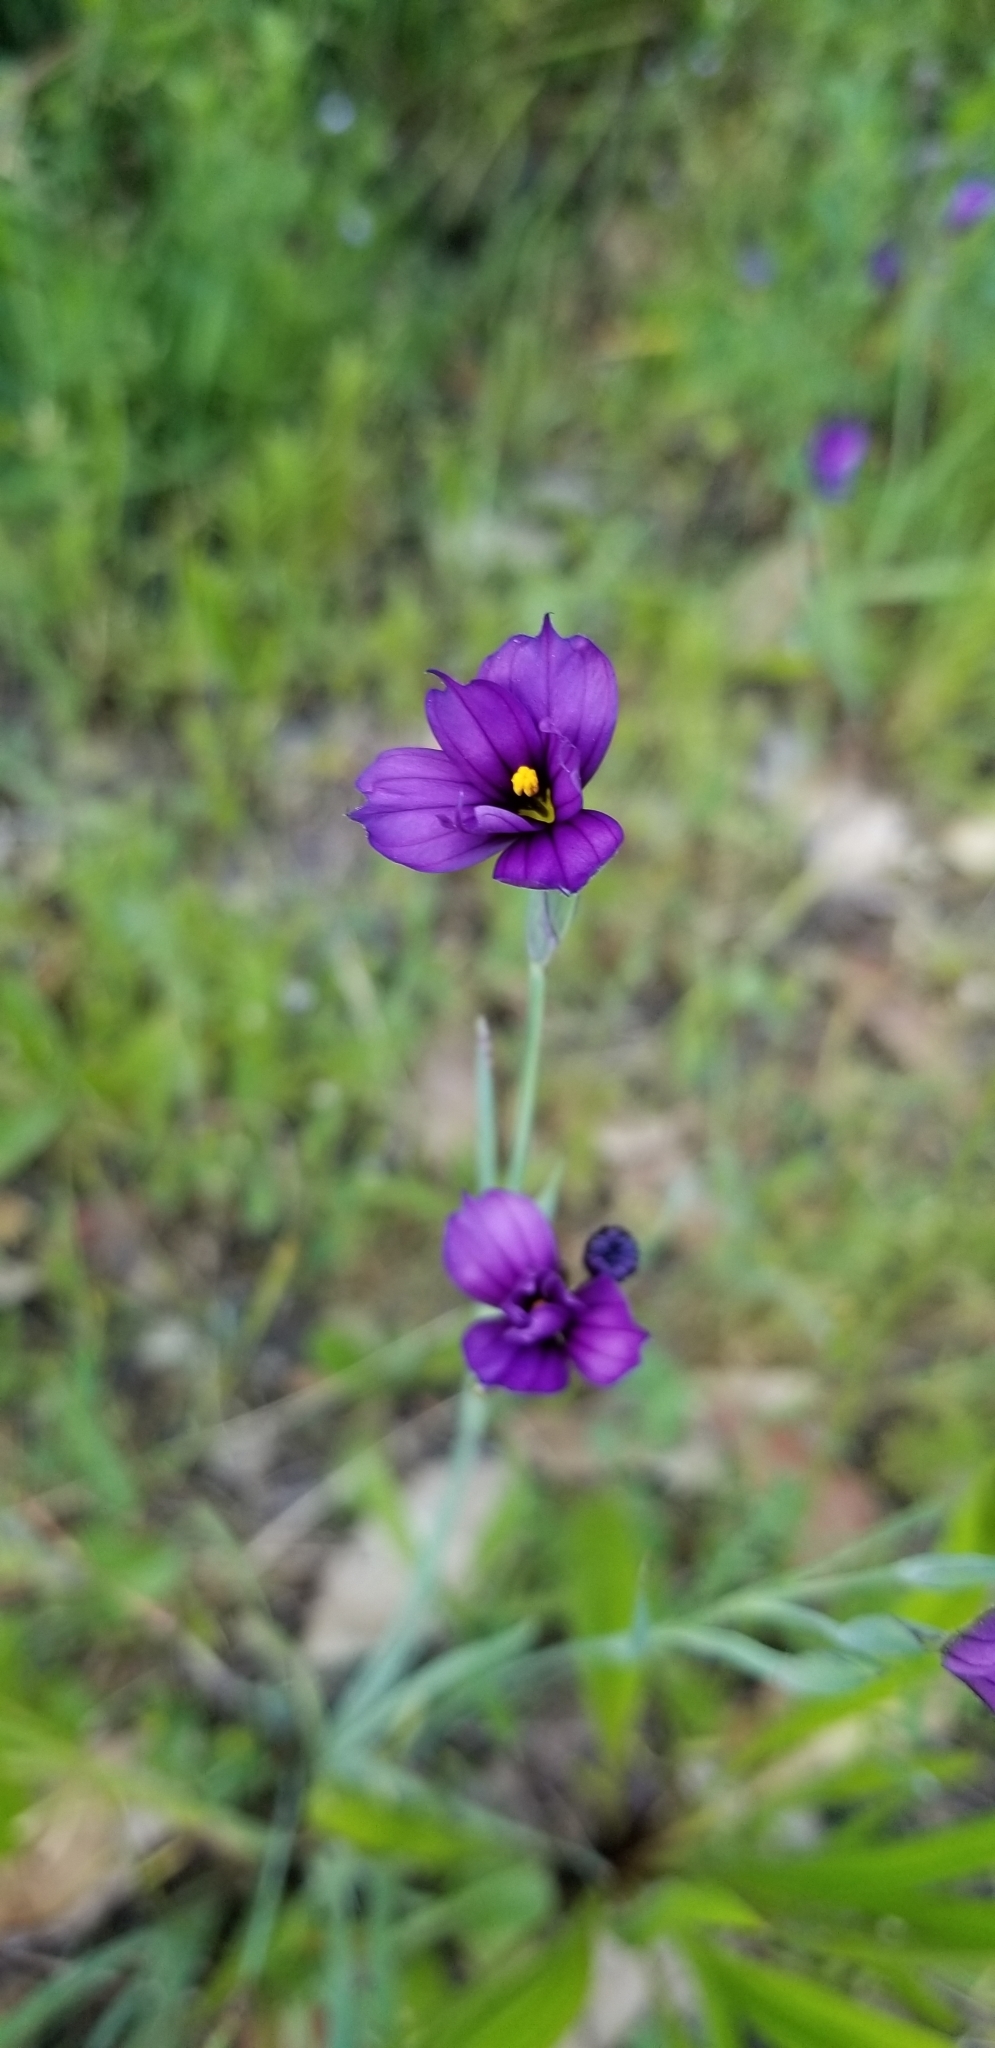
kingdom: Plantae
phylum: Tracheophyta
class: Liliopsida
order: Asparagales
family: Iridaceae
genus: Sisyrinchium
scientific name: Sisyrinchium bellum
